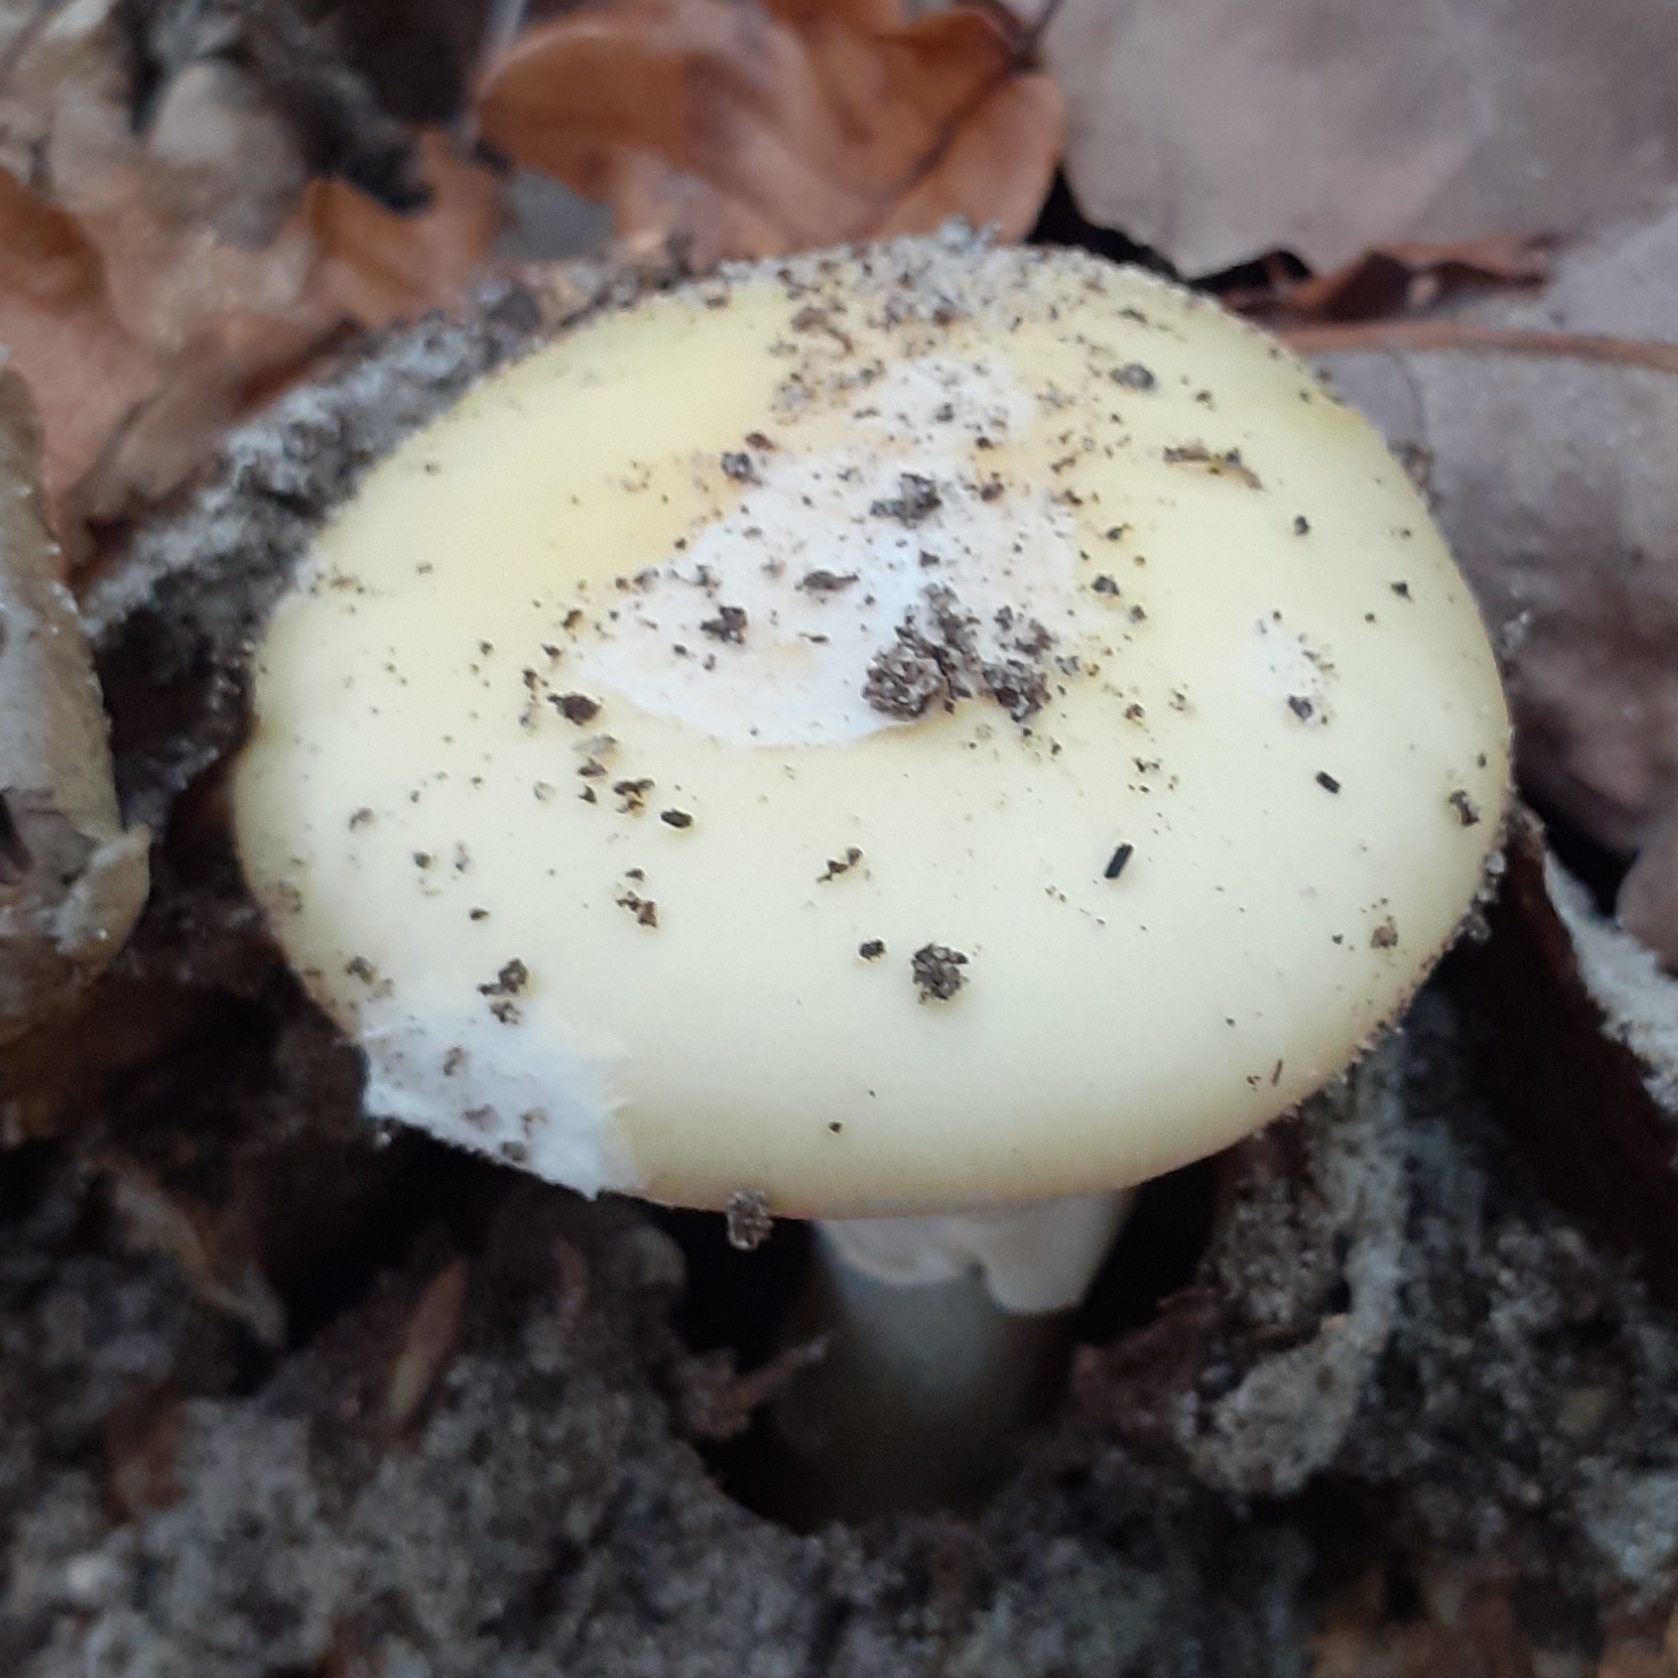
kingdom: Fungi
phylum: Basidiomycota
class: Agaricomycetes
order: Agaricales
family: Amanitaceae
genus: Amanita
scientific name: Amanita gemmata
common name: Jewelled amanita
